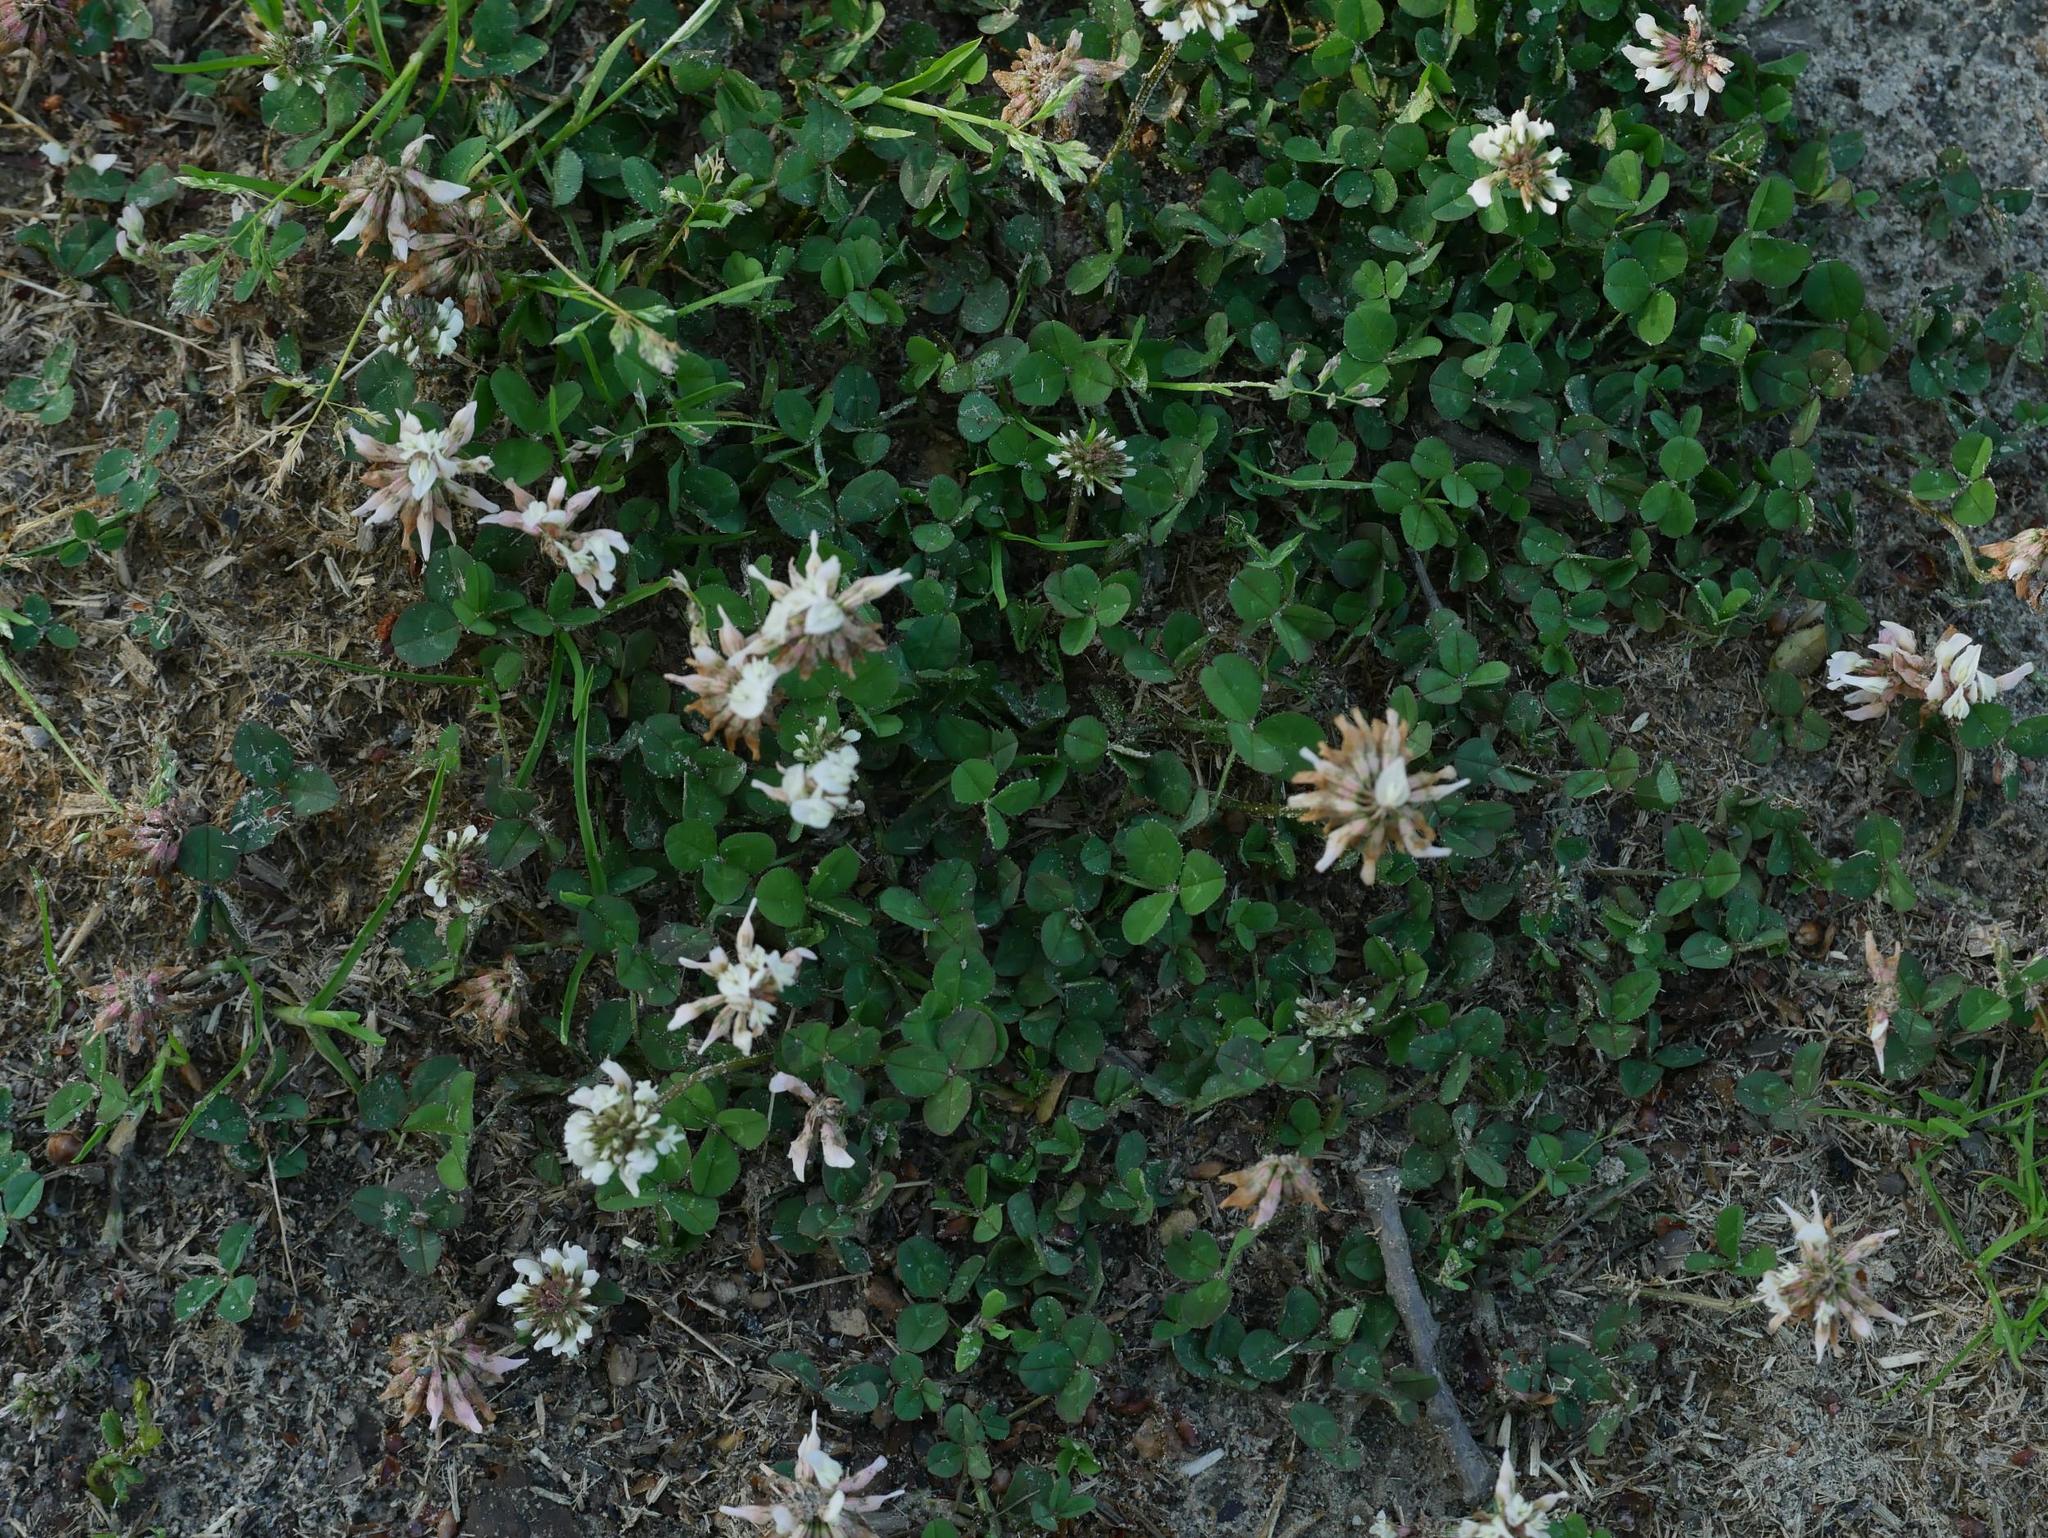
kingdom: Plantae
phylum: Tracheophyta
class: Magnoliopsida
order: Fabales
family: Fabaceae
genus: Trifolium
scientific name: Trifolium repens
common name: White clover
